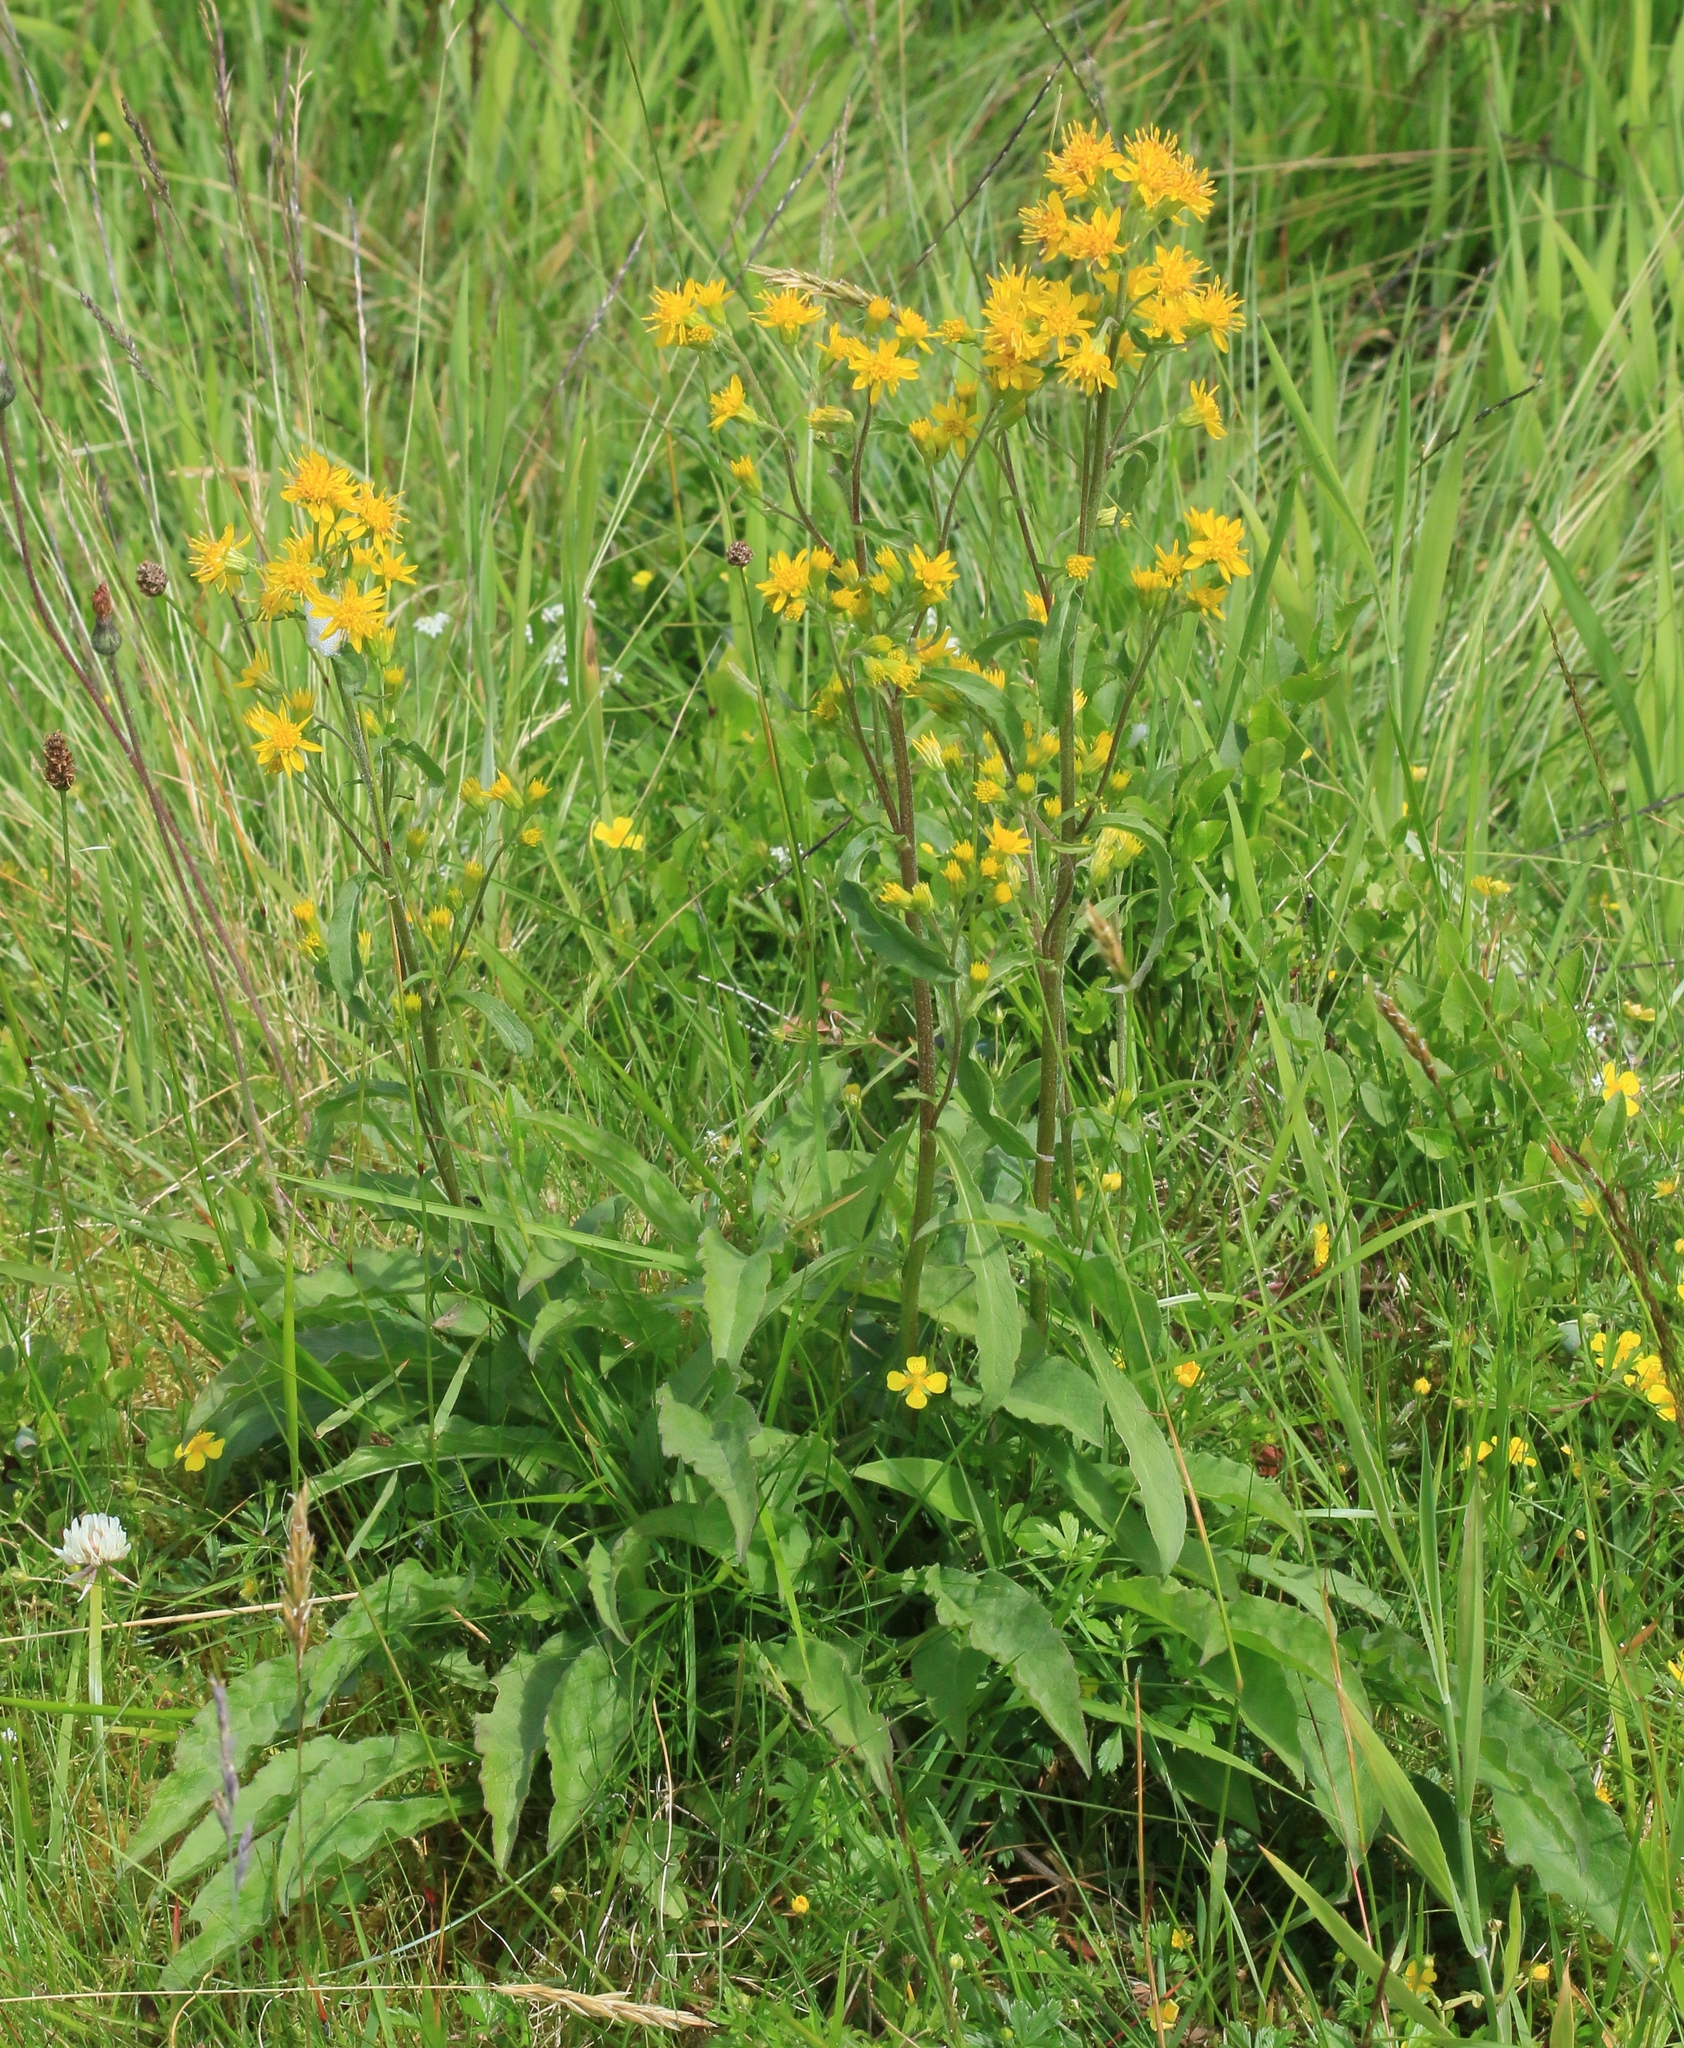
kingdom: Plantae
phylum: Tracheophyta
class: Magnoliopsida
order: Asterales
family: Asteraceae
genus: Solidago
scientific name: Solidago virgaurea
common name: Goldenrod
